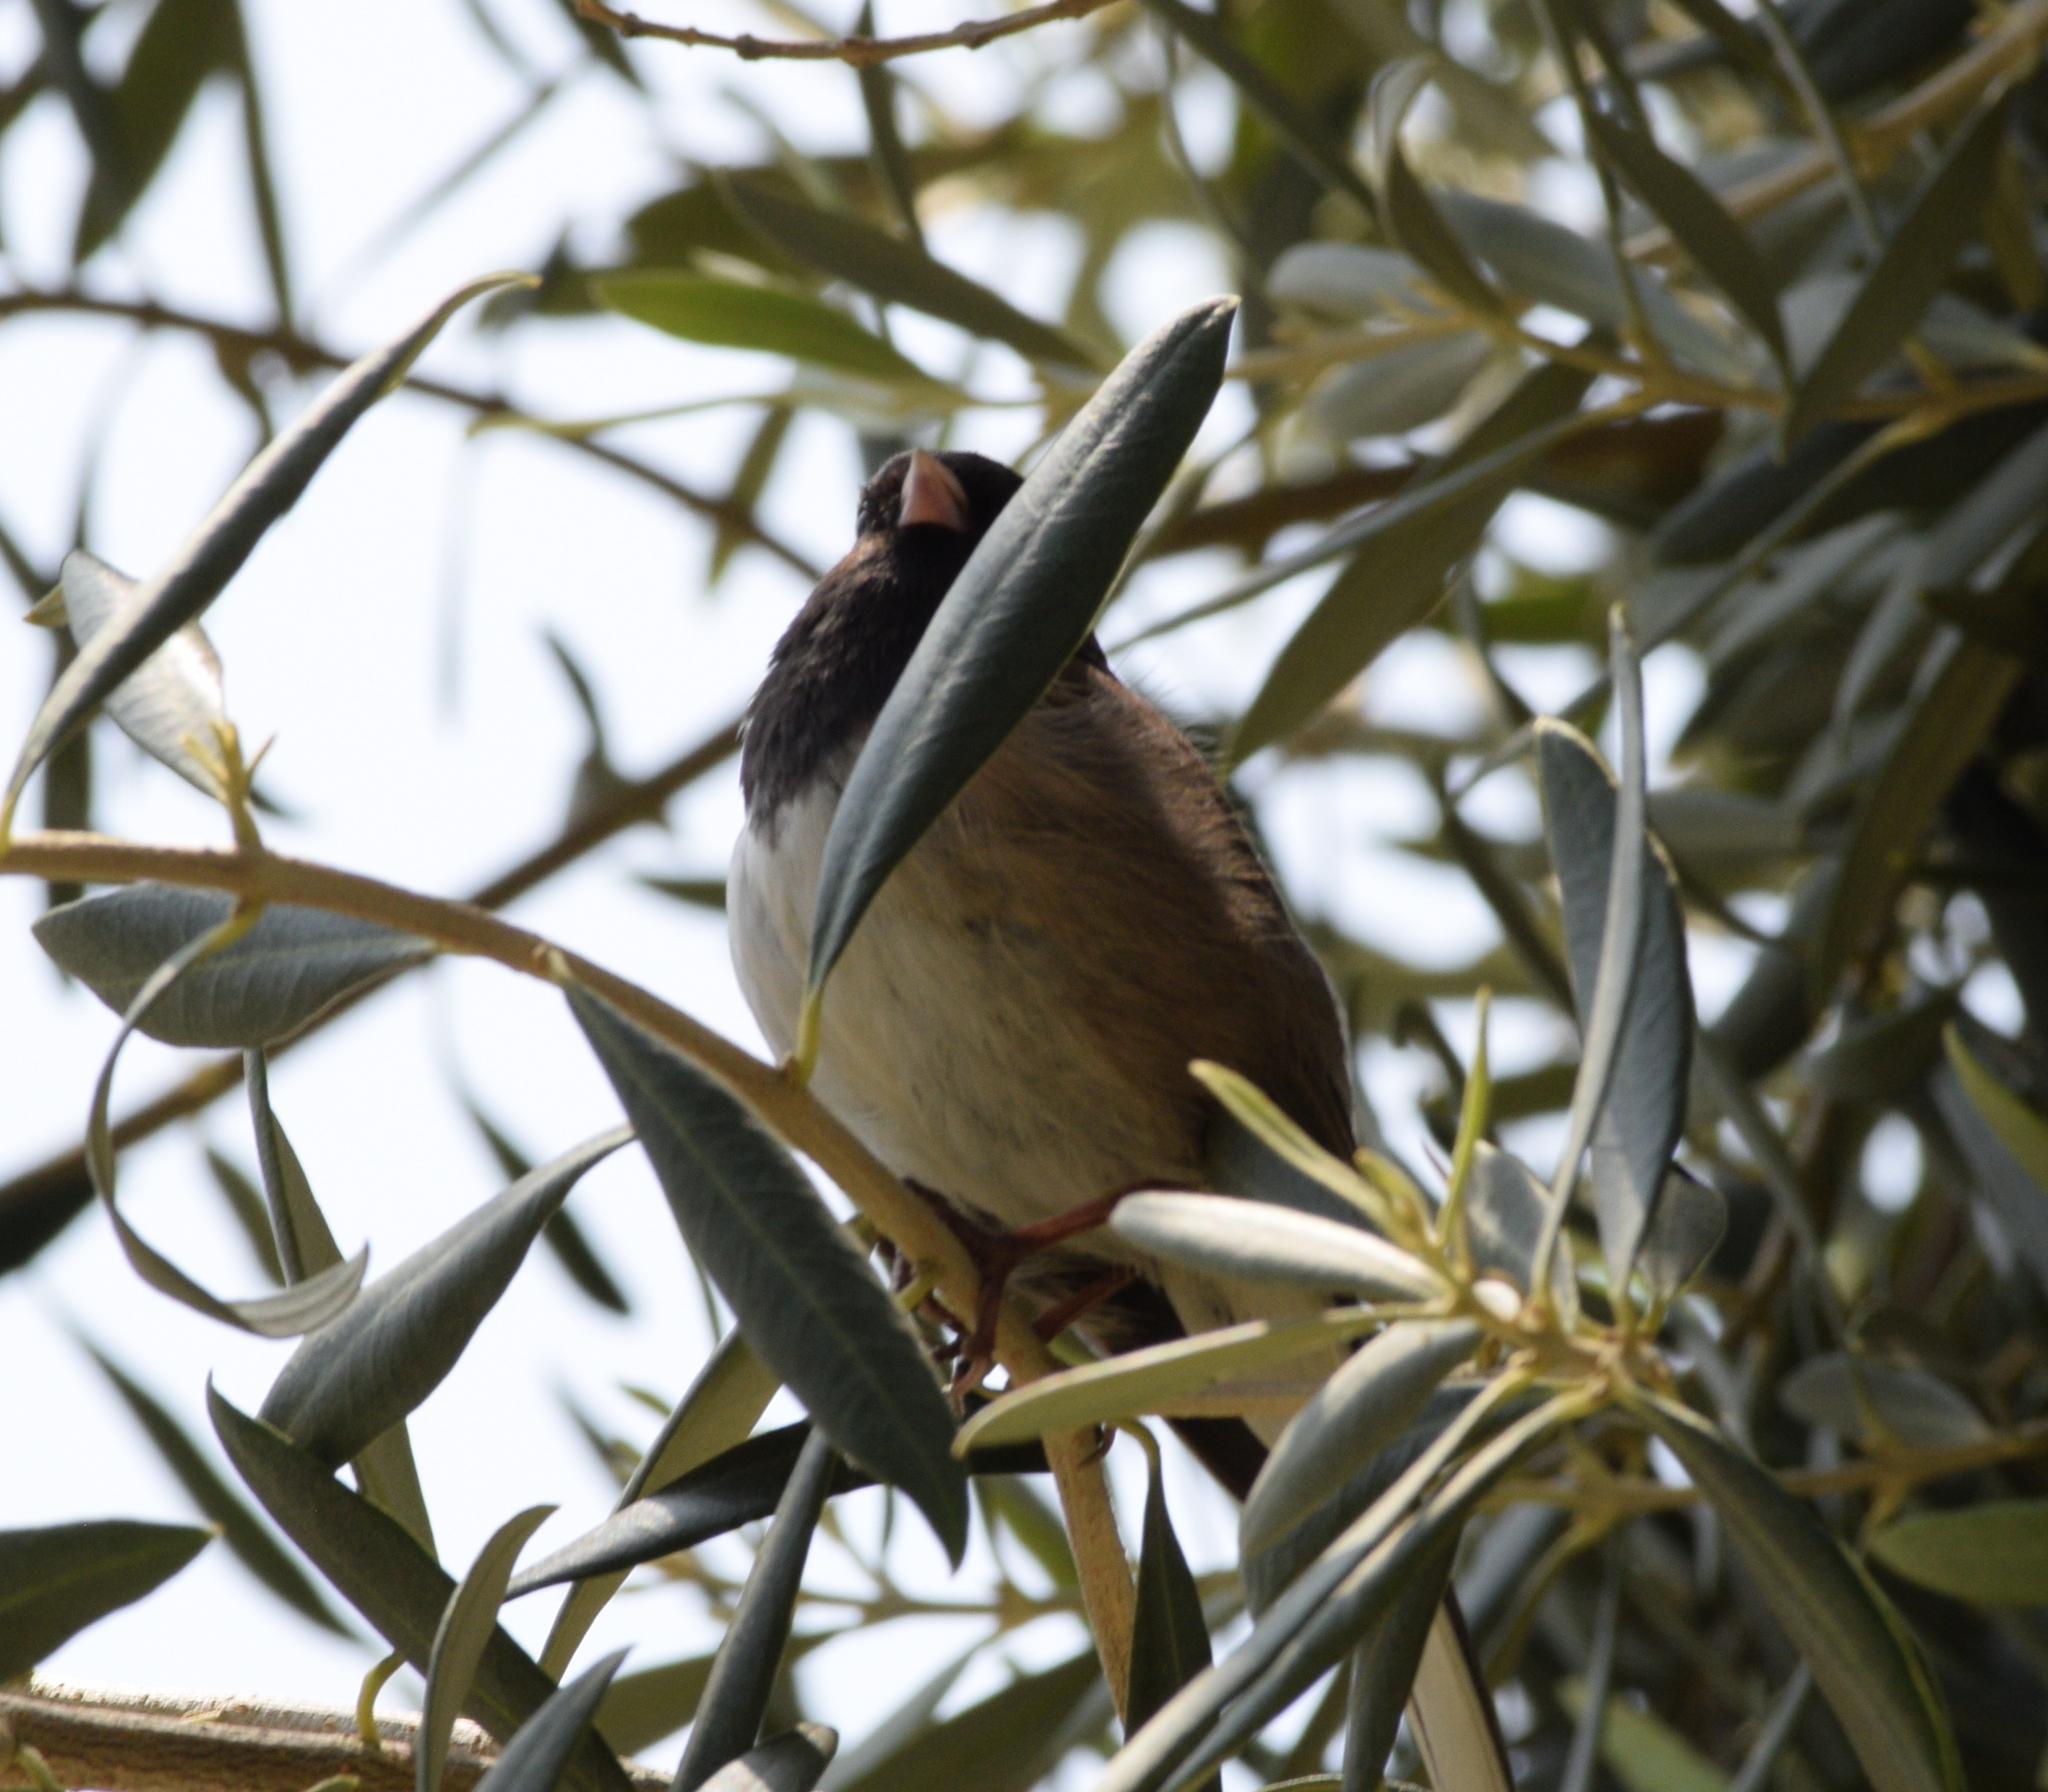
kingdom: Animalia
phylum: Chordata
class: Aves
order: Passeriformes
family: Passerellidae
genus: Junco
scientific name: Junco hyemalis
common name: Dark-eyed junco
